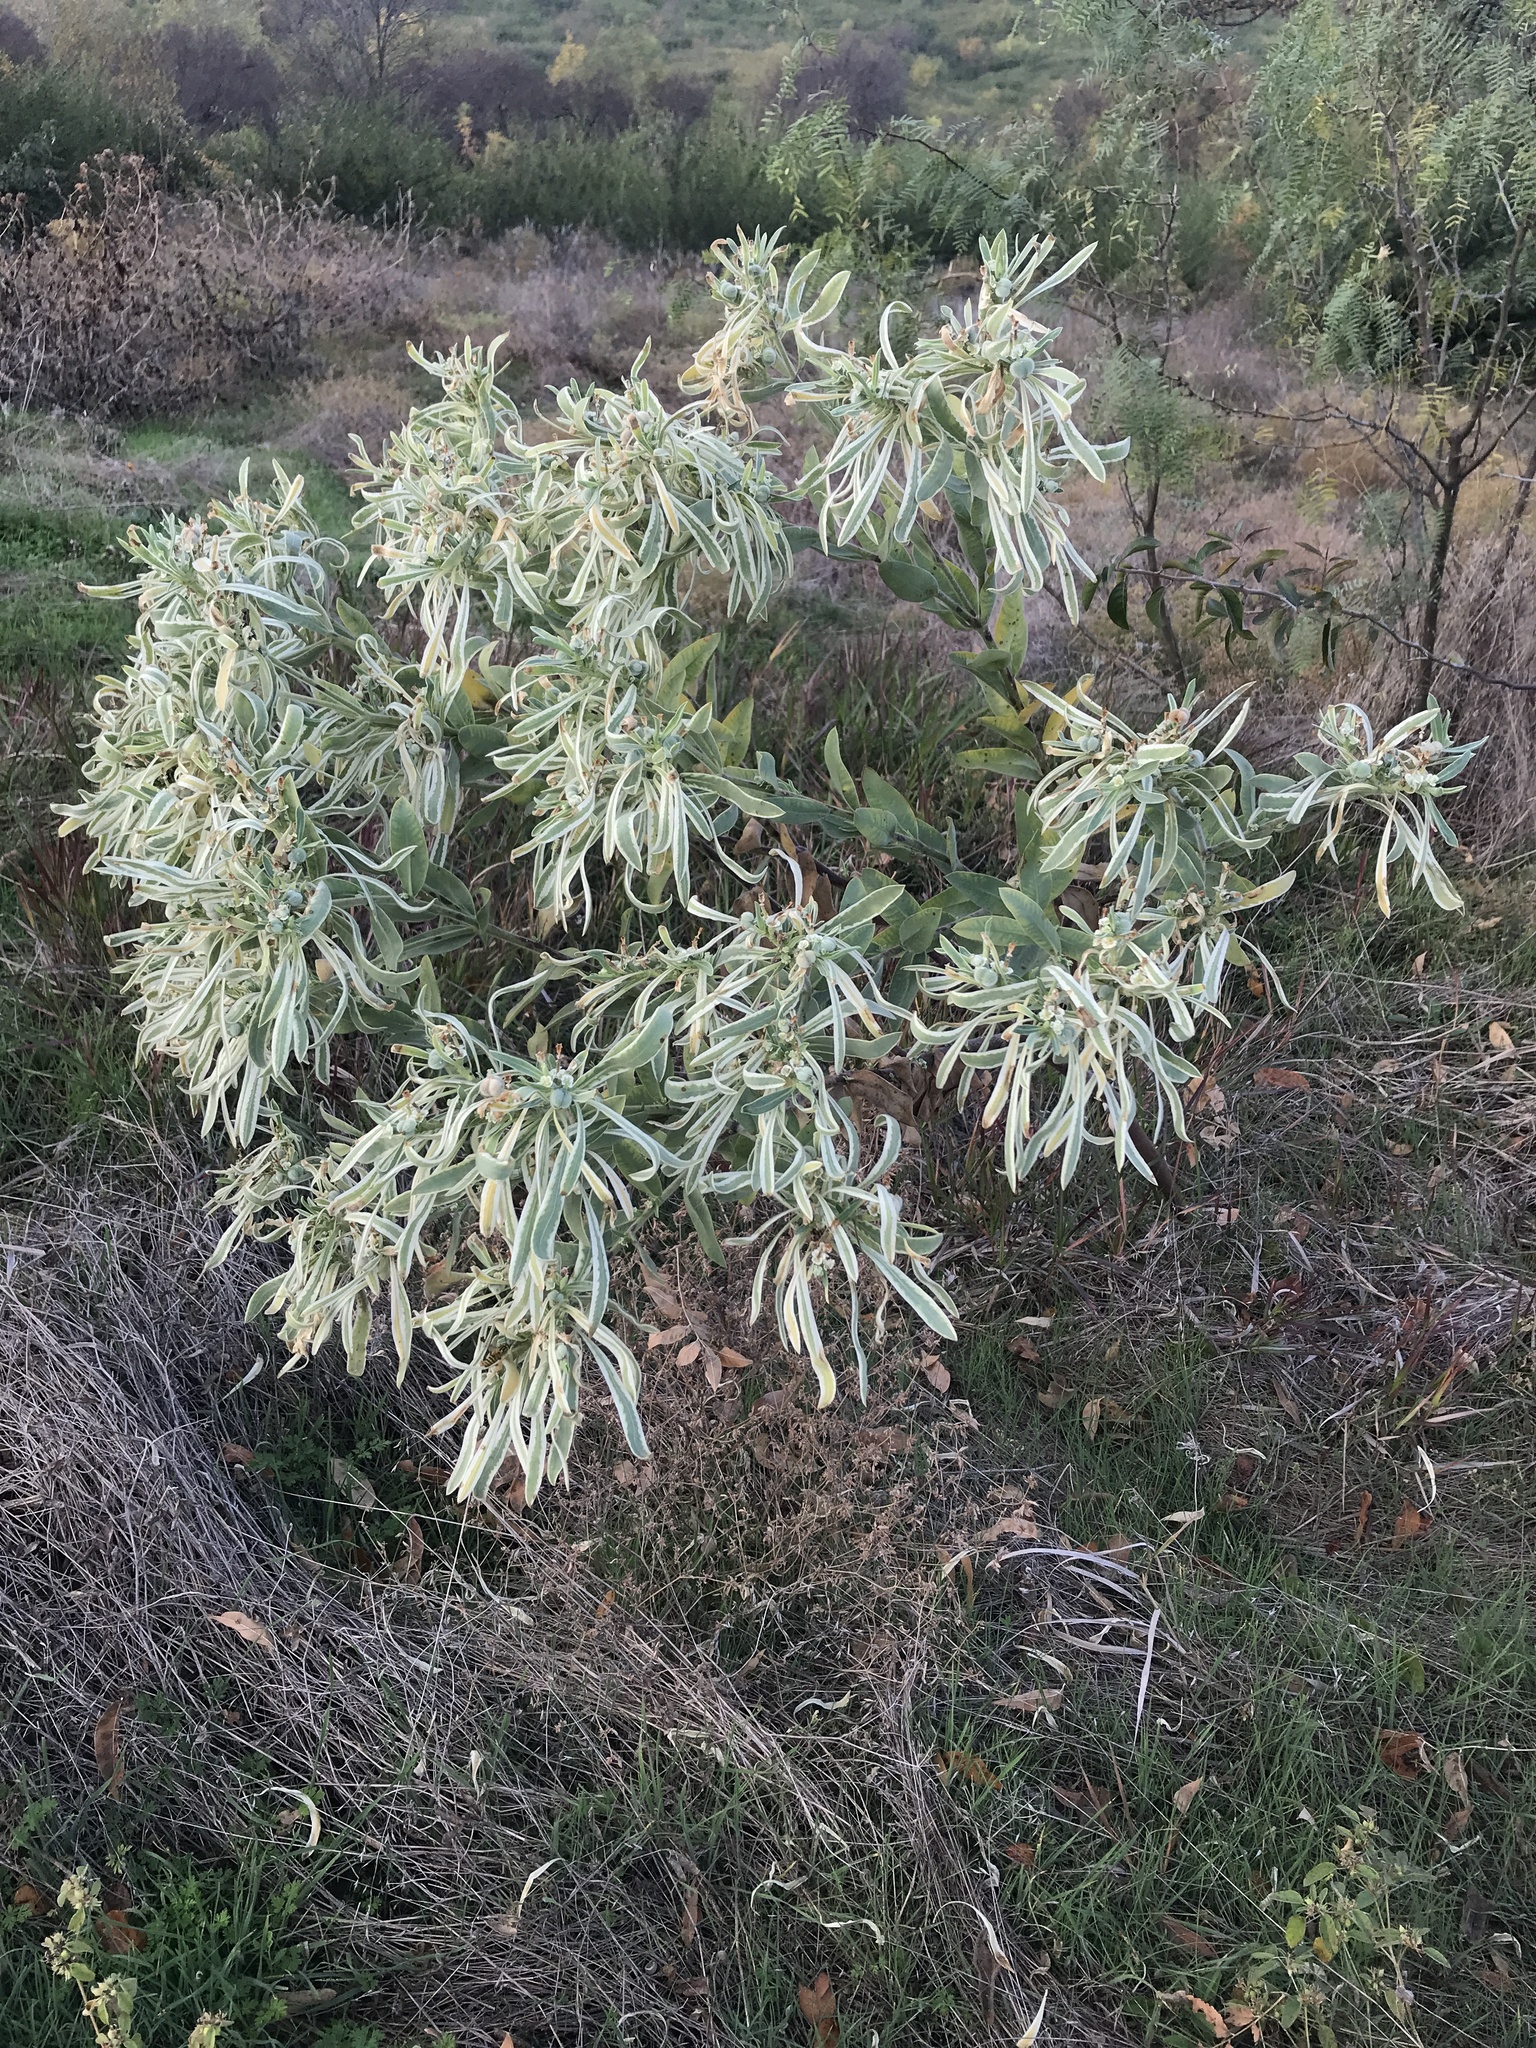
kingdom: Plantae
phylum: Tracheophyta
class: Magnoliopsida
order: Malpighiales
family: Euphorbiaceae
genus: Euphorbia
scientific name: Euphorbia bicolor
